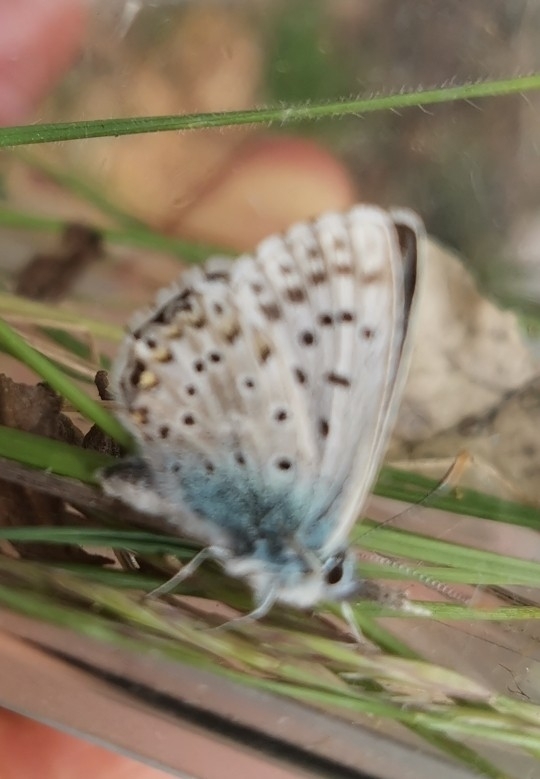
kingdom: Animalia
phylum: Arthropoda
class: Insecta
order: Lepidoptera
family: Lycaenidae
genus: Lysandra
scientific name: Lysandra hispana
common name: Provence chalkhill blue
